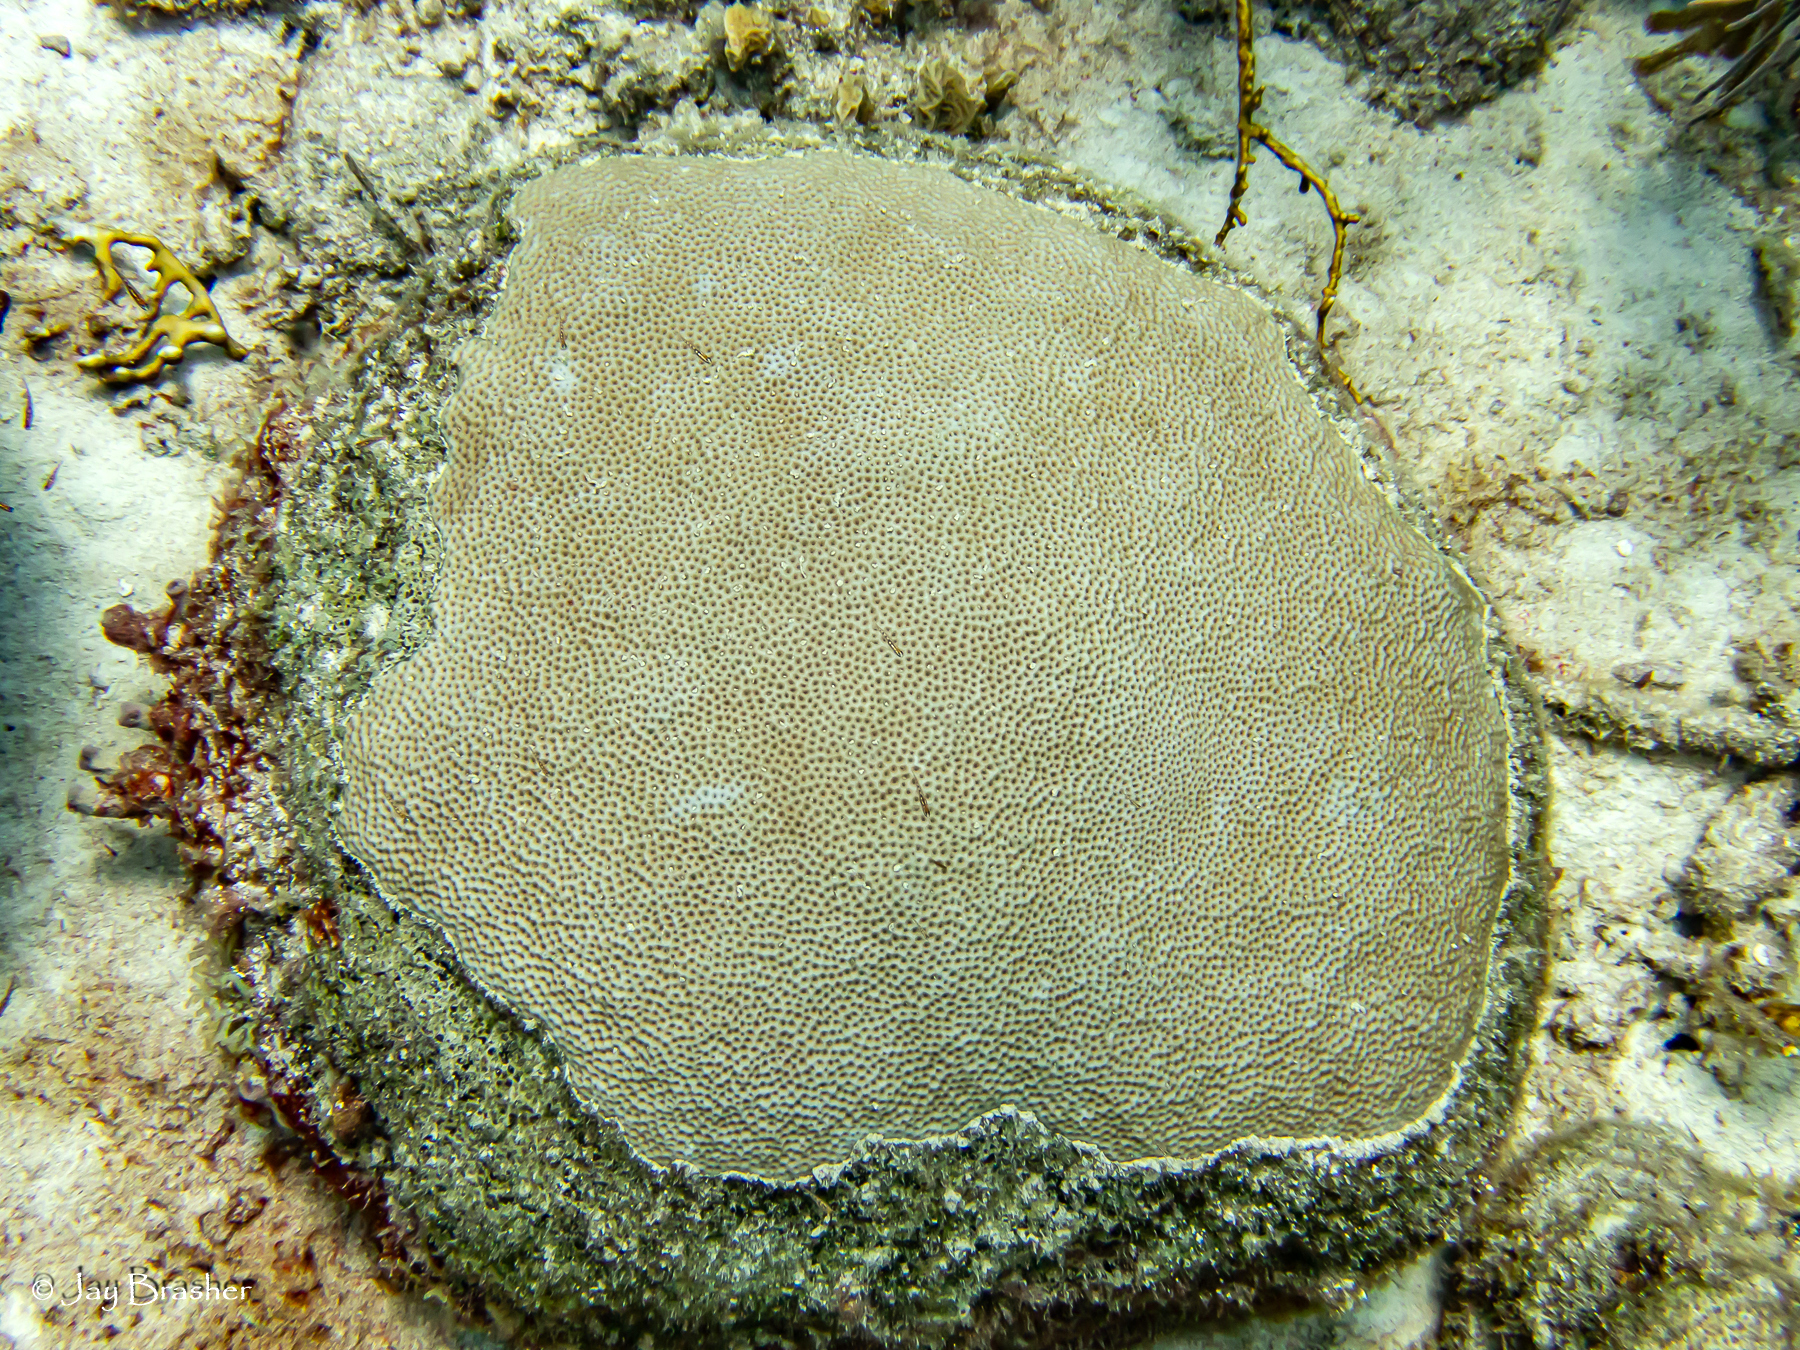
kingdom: Animalia
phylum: Cnidaria
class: Anthozoa
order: Scleractinia
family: Rhizangiidae
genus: Siderastrea
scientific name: Siderastrea siderea
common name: Massive starlet coral
